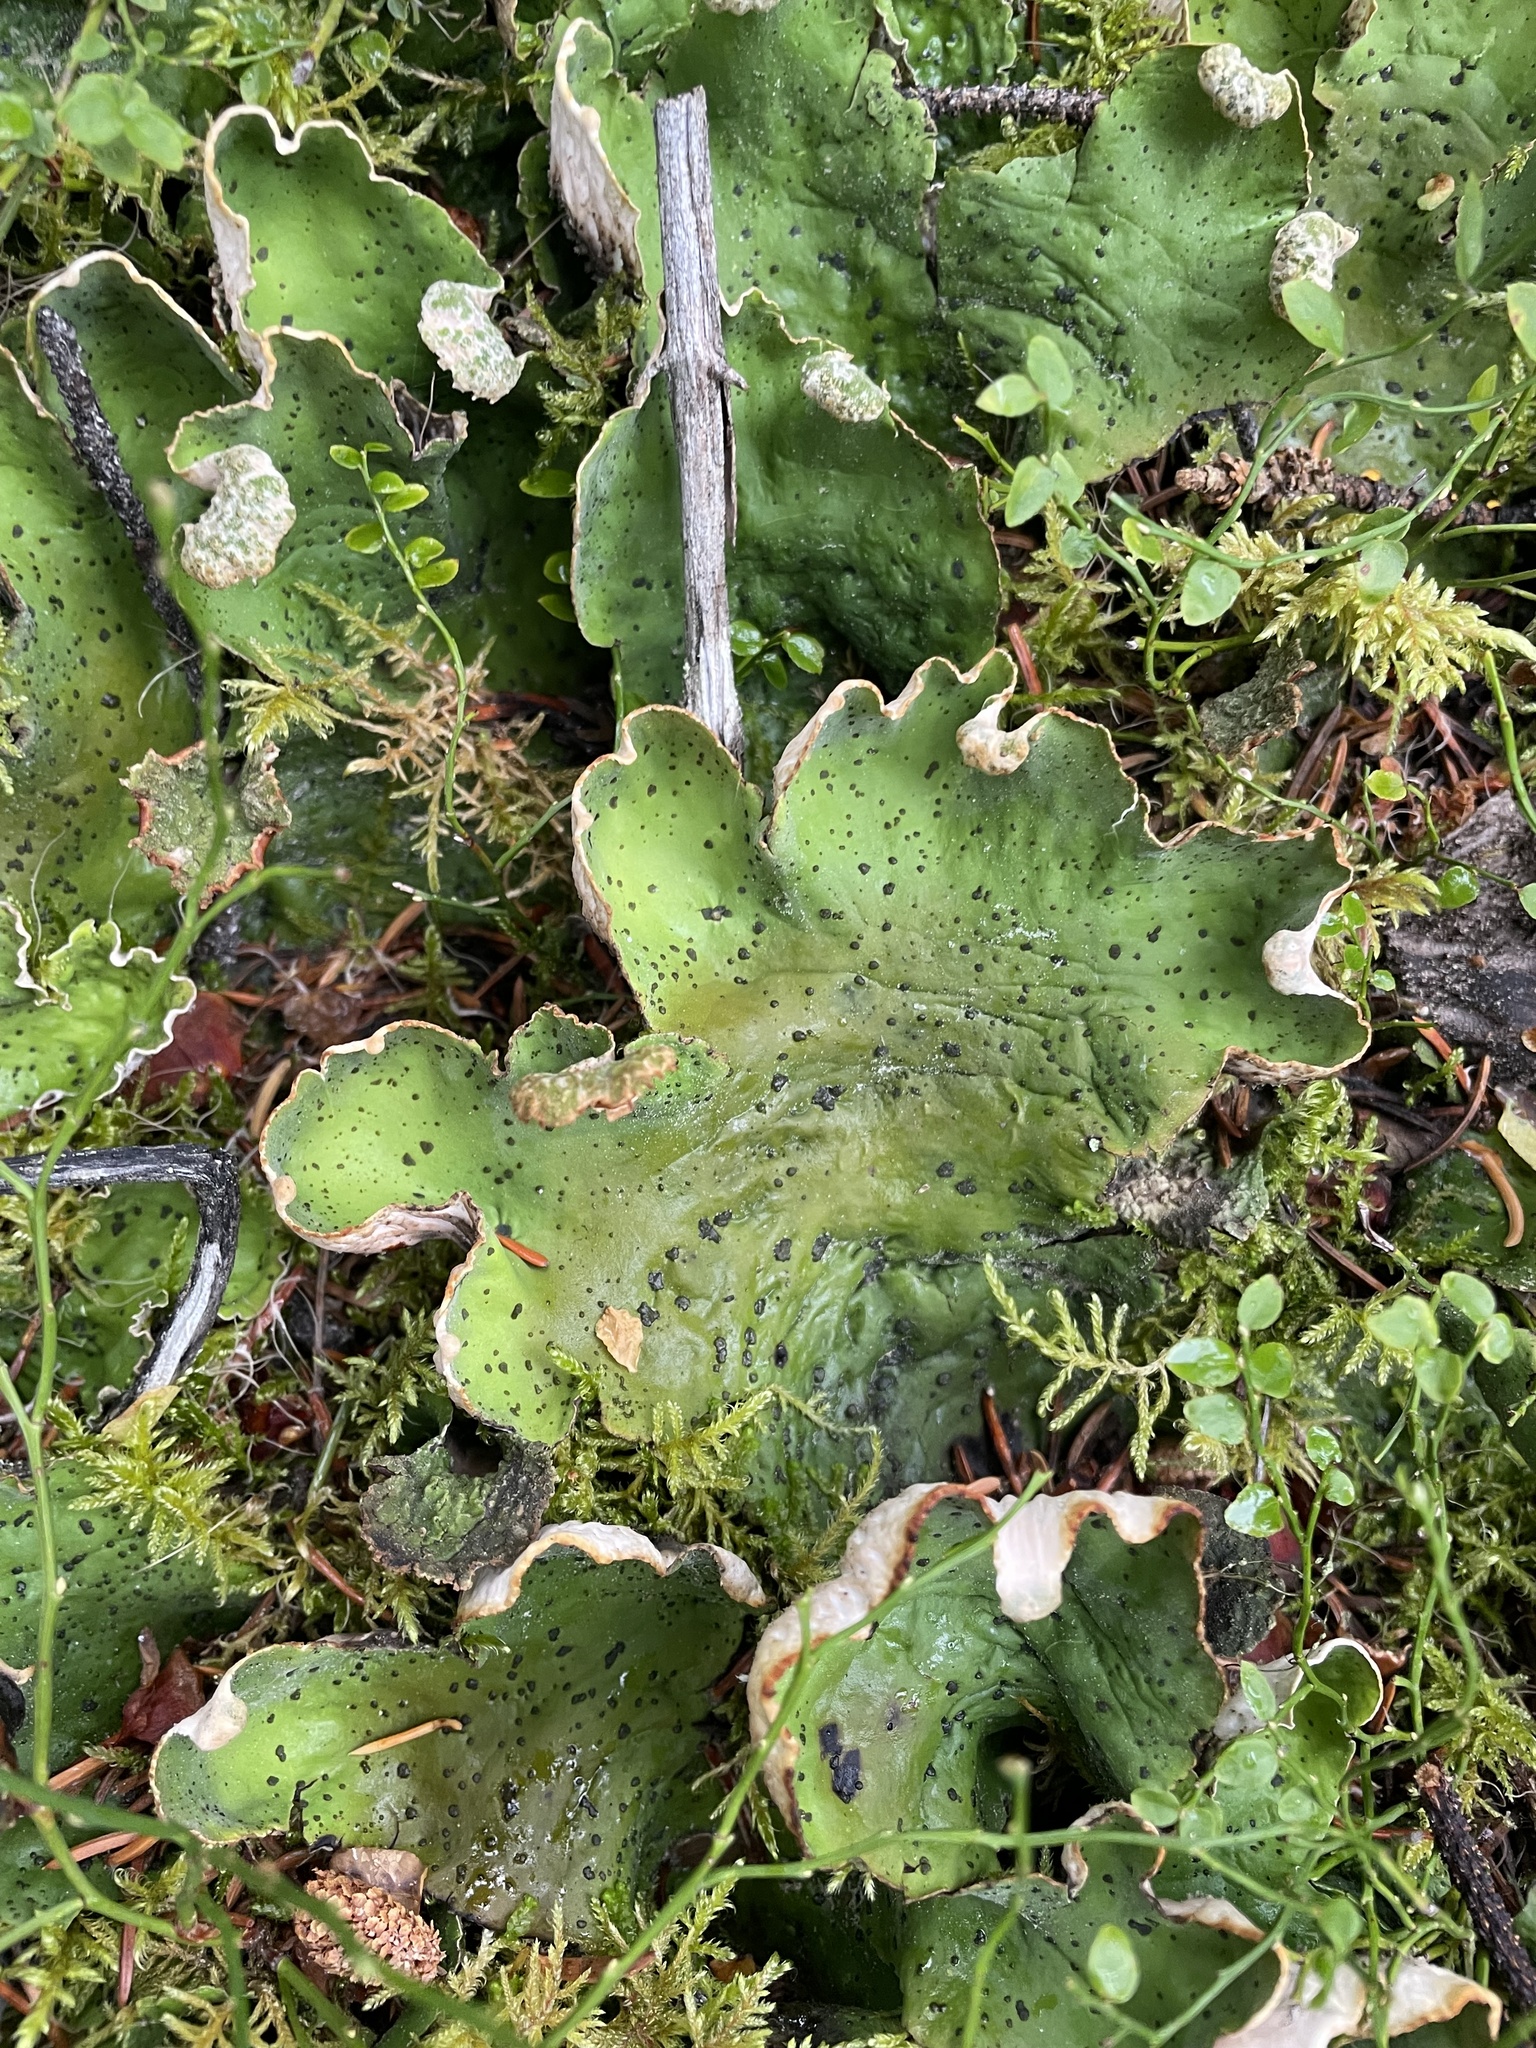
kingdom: Fungi
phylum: Ascomycota
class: Lecanoromycetes
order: Peltigerales
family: Peltigeraceae
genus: Peltigera
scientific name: Peltigera aphthosa
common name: Common freckle pelt lichen
